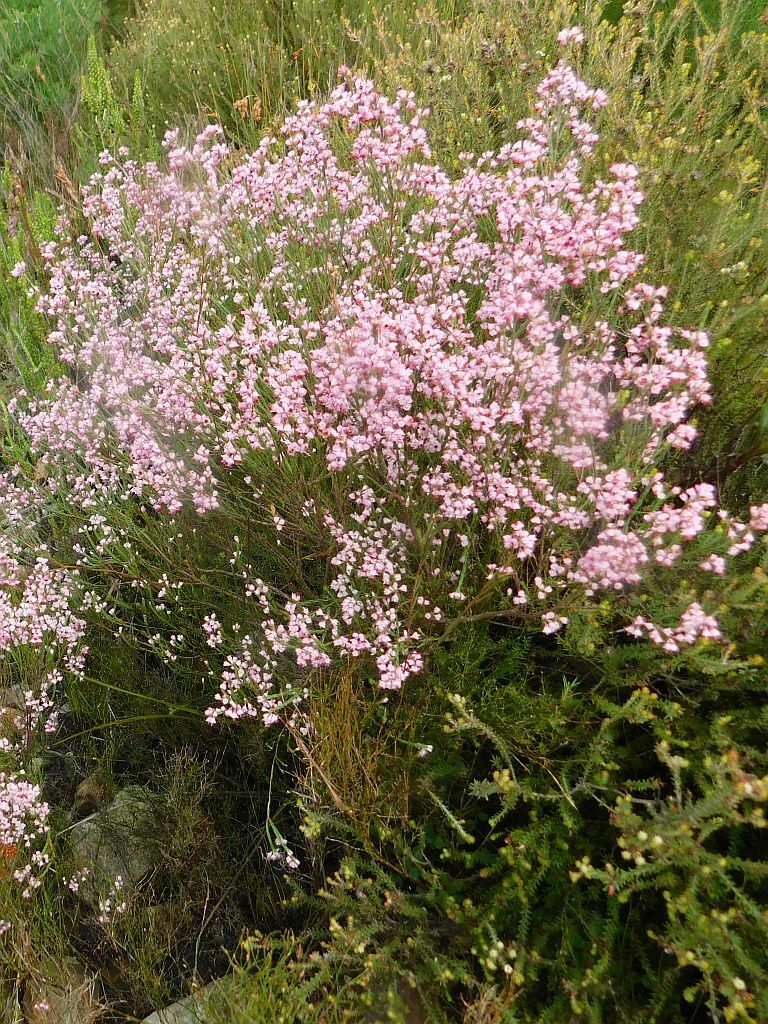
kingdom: Plantae
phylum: Tracheophyta
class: Magnoliopsida
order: Ericales
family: Ericaceae
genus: Erica
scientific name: Erica corifolia
